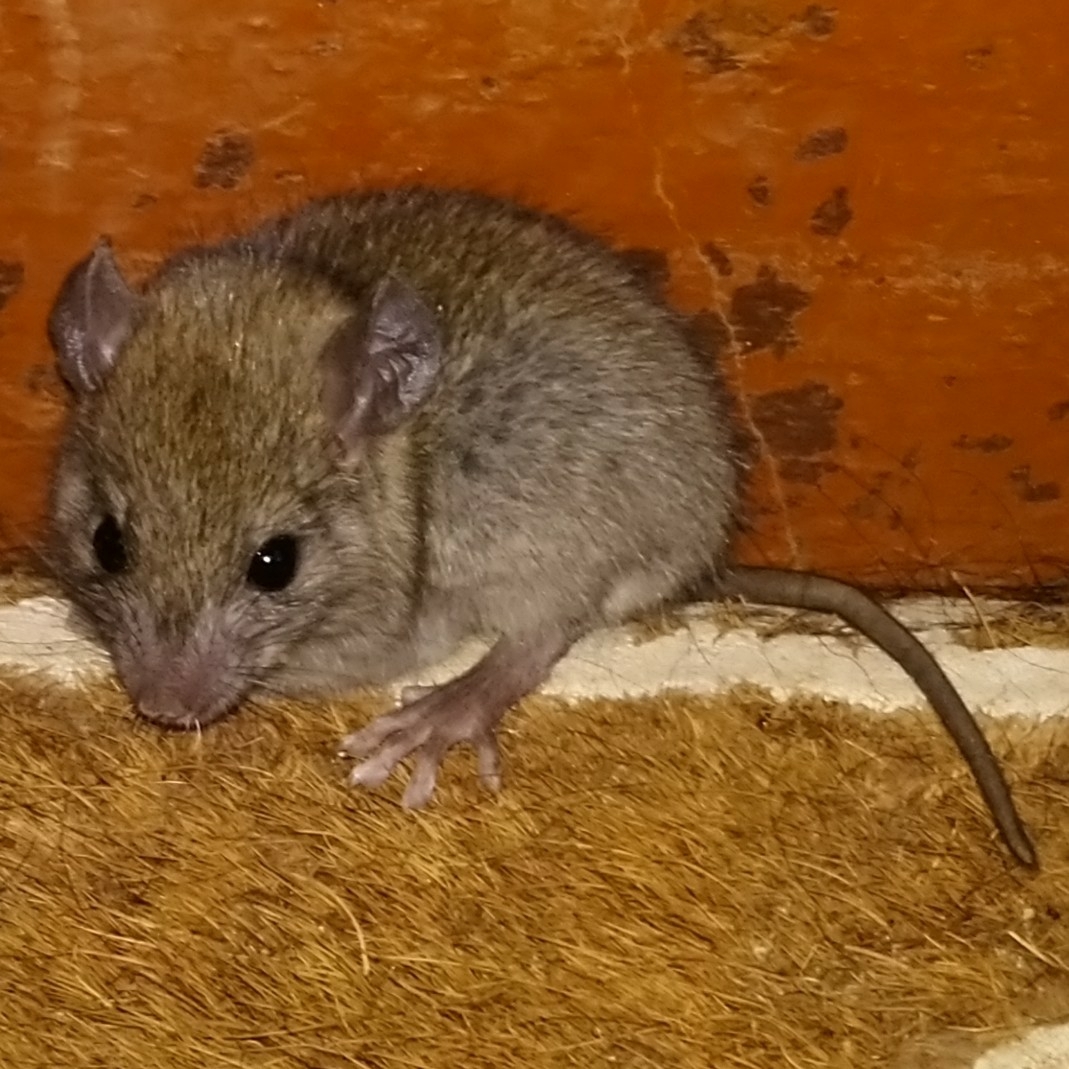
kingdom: Animalia
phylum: Chordata
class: Mammalia
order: Rodentia
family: Muridae
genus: Rattus
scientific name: Rattus rattus
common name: Black rat
